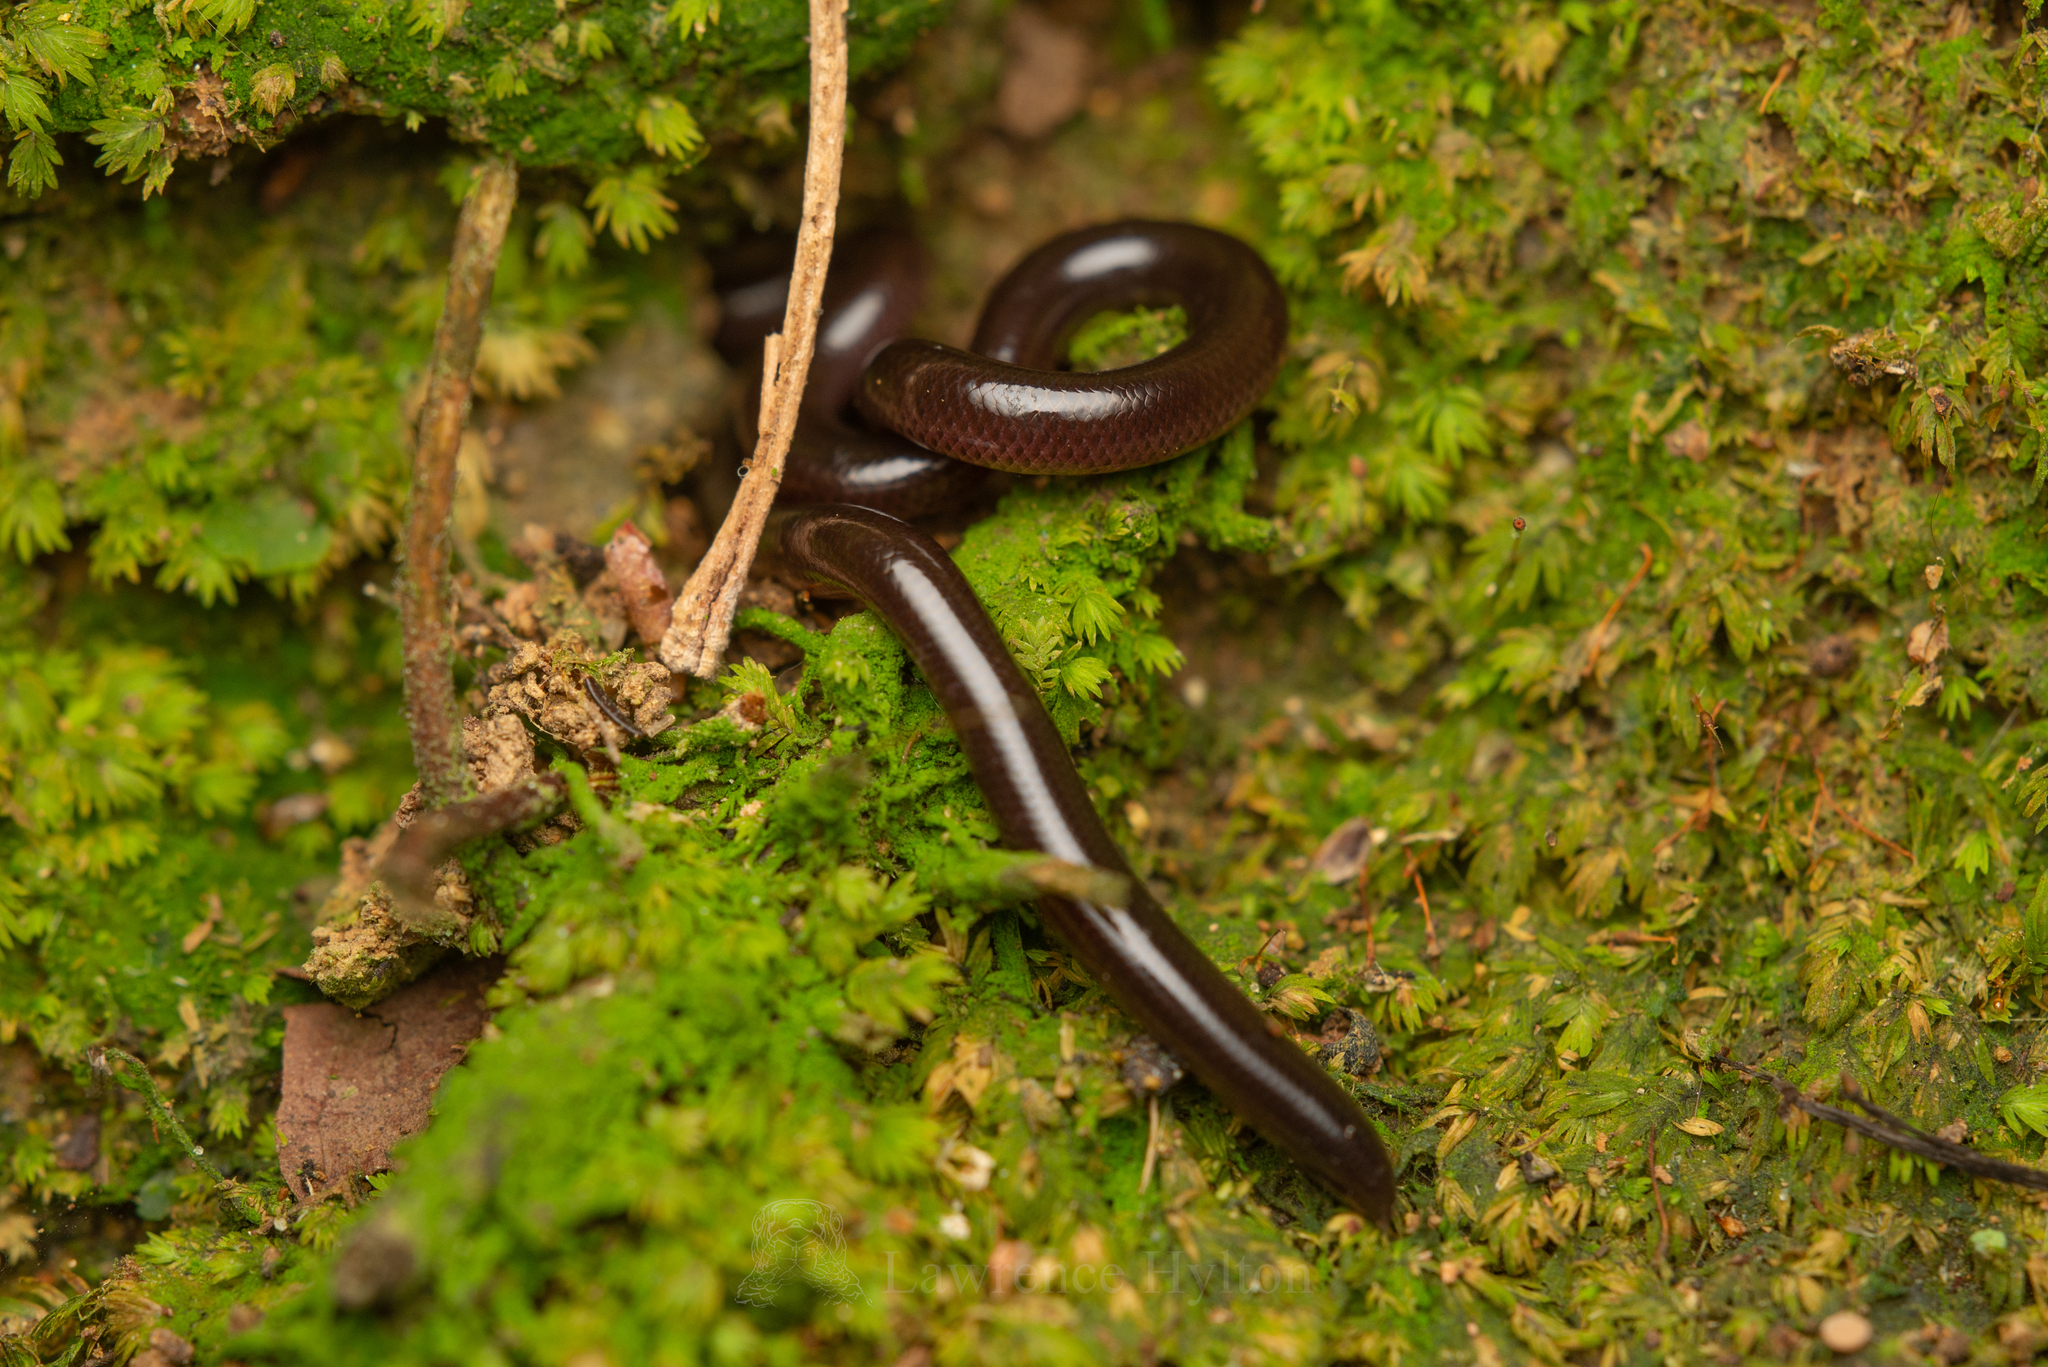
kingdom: Animalia
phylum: Chordata
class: Squamata
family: Typhlopidae
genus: Indotyphlops
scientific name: Indotyphlops braminus
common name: Brahminy blindsnake
